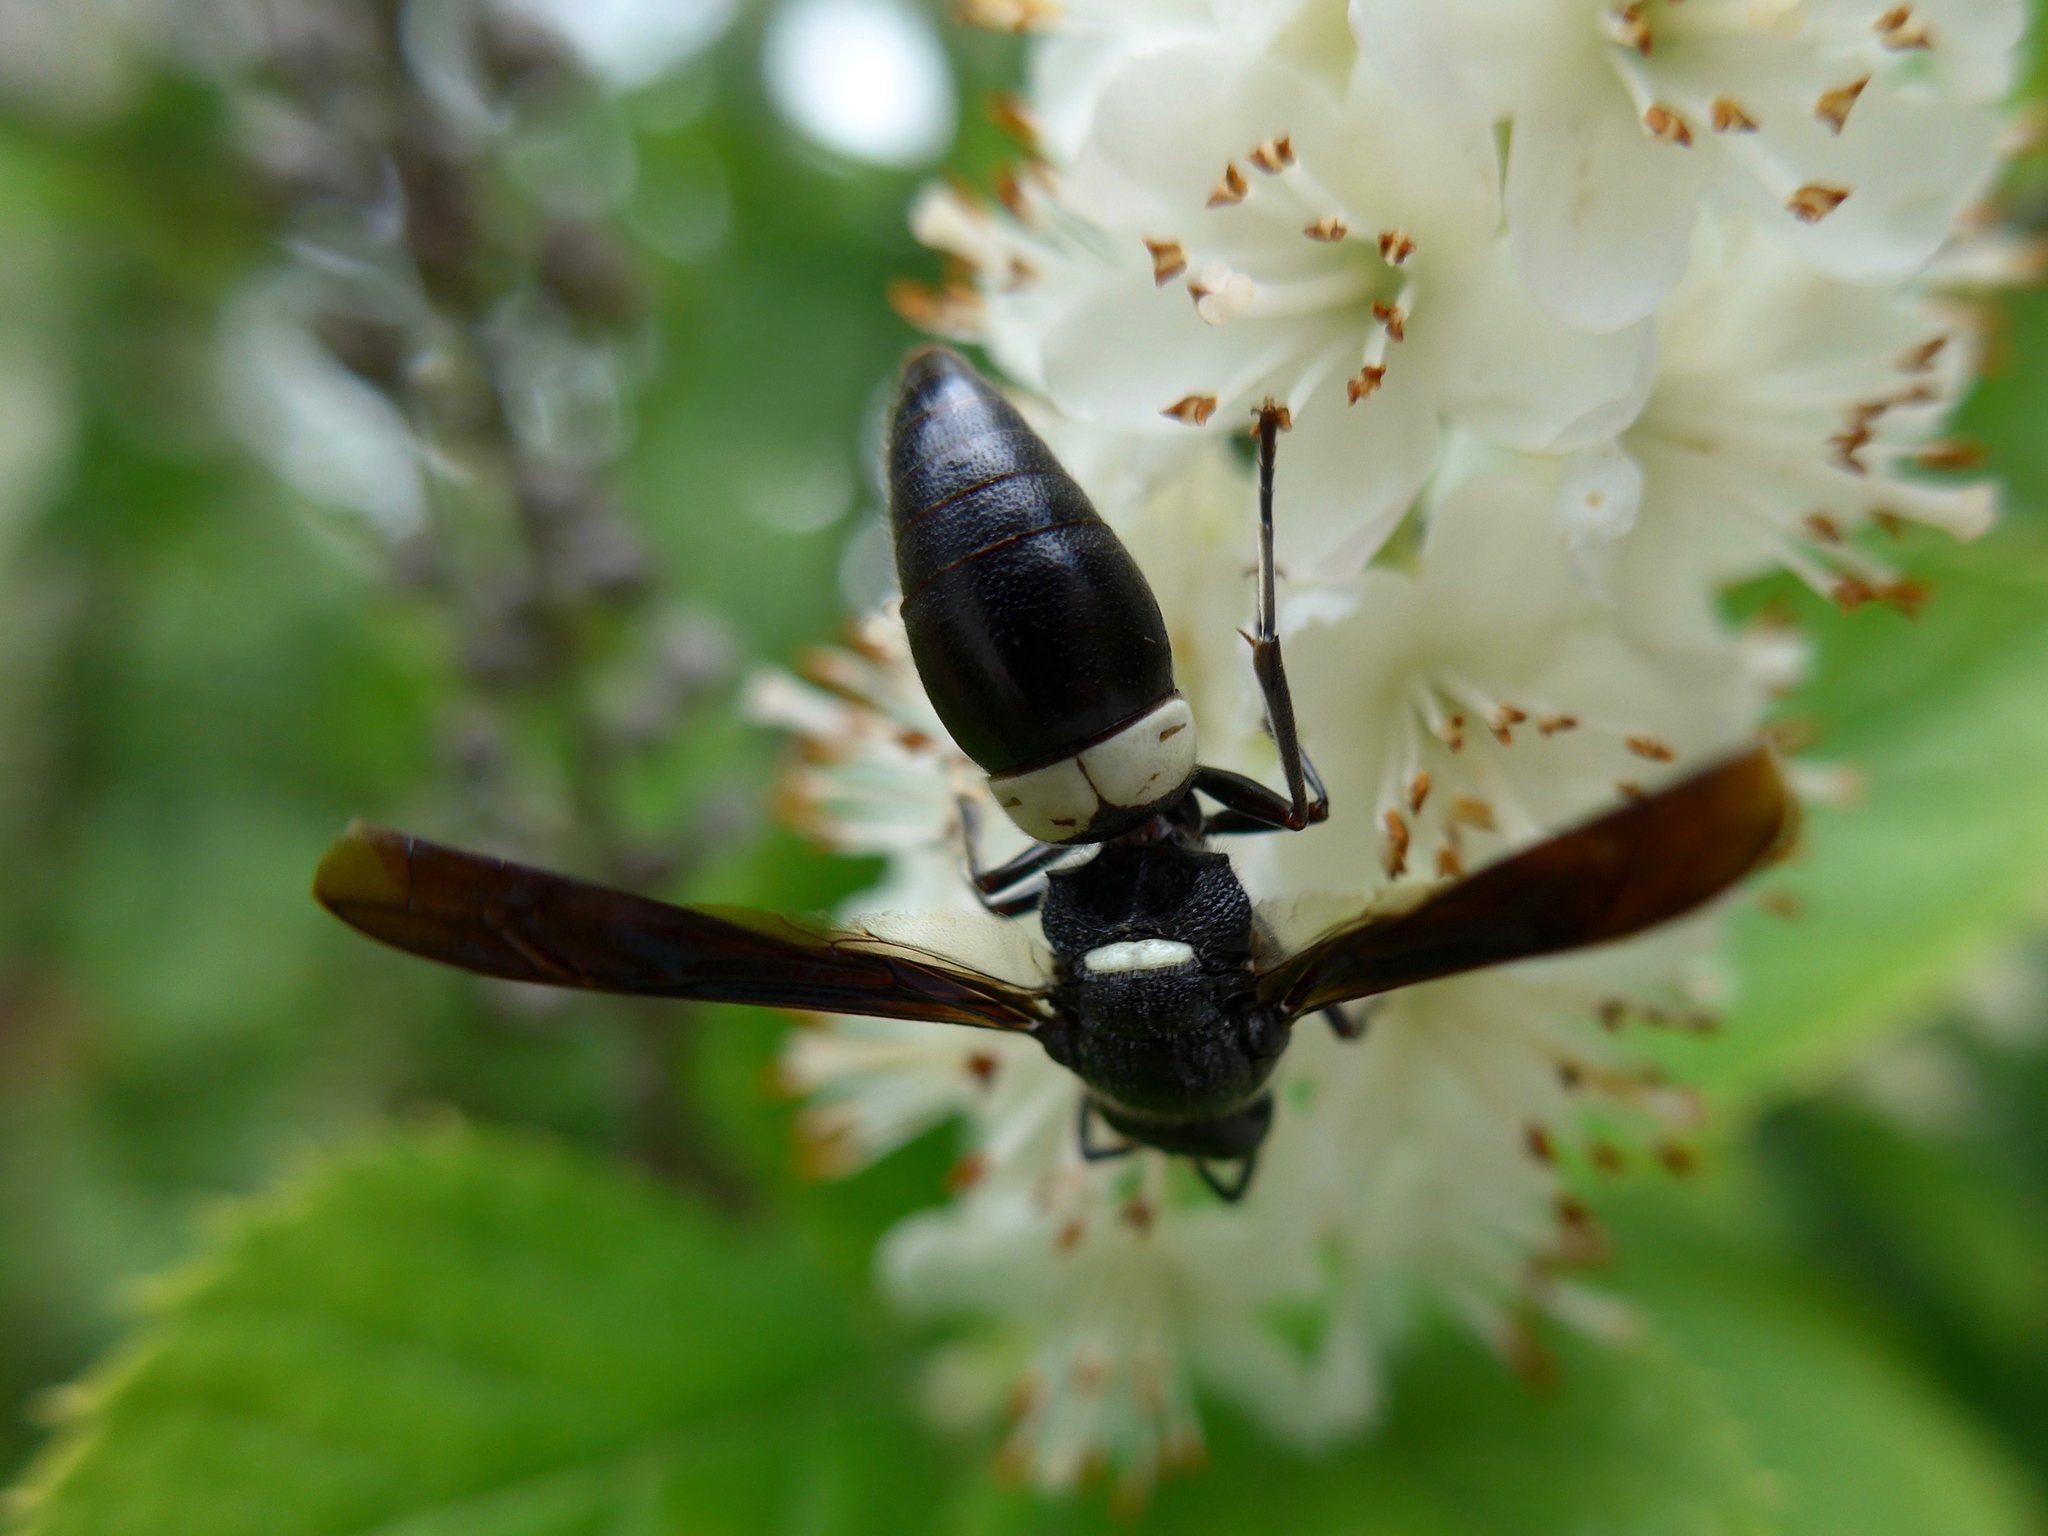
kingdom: Animalia
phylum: Arthropoda
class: Insecta
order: Hymenoptera
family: Eumenidae
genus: Monobia
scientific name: Monobia quadridens
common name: Four-toothed mason wasp
